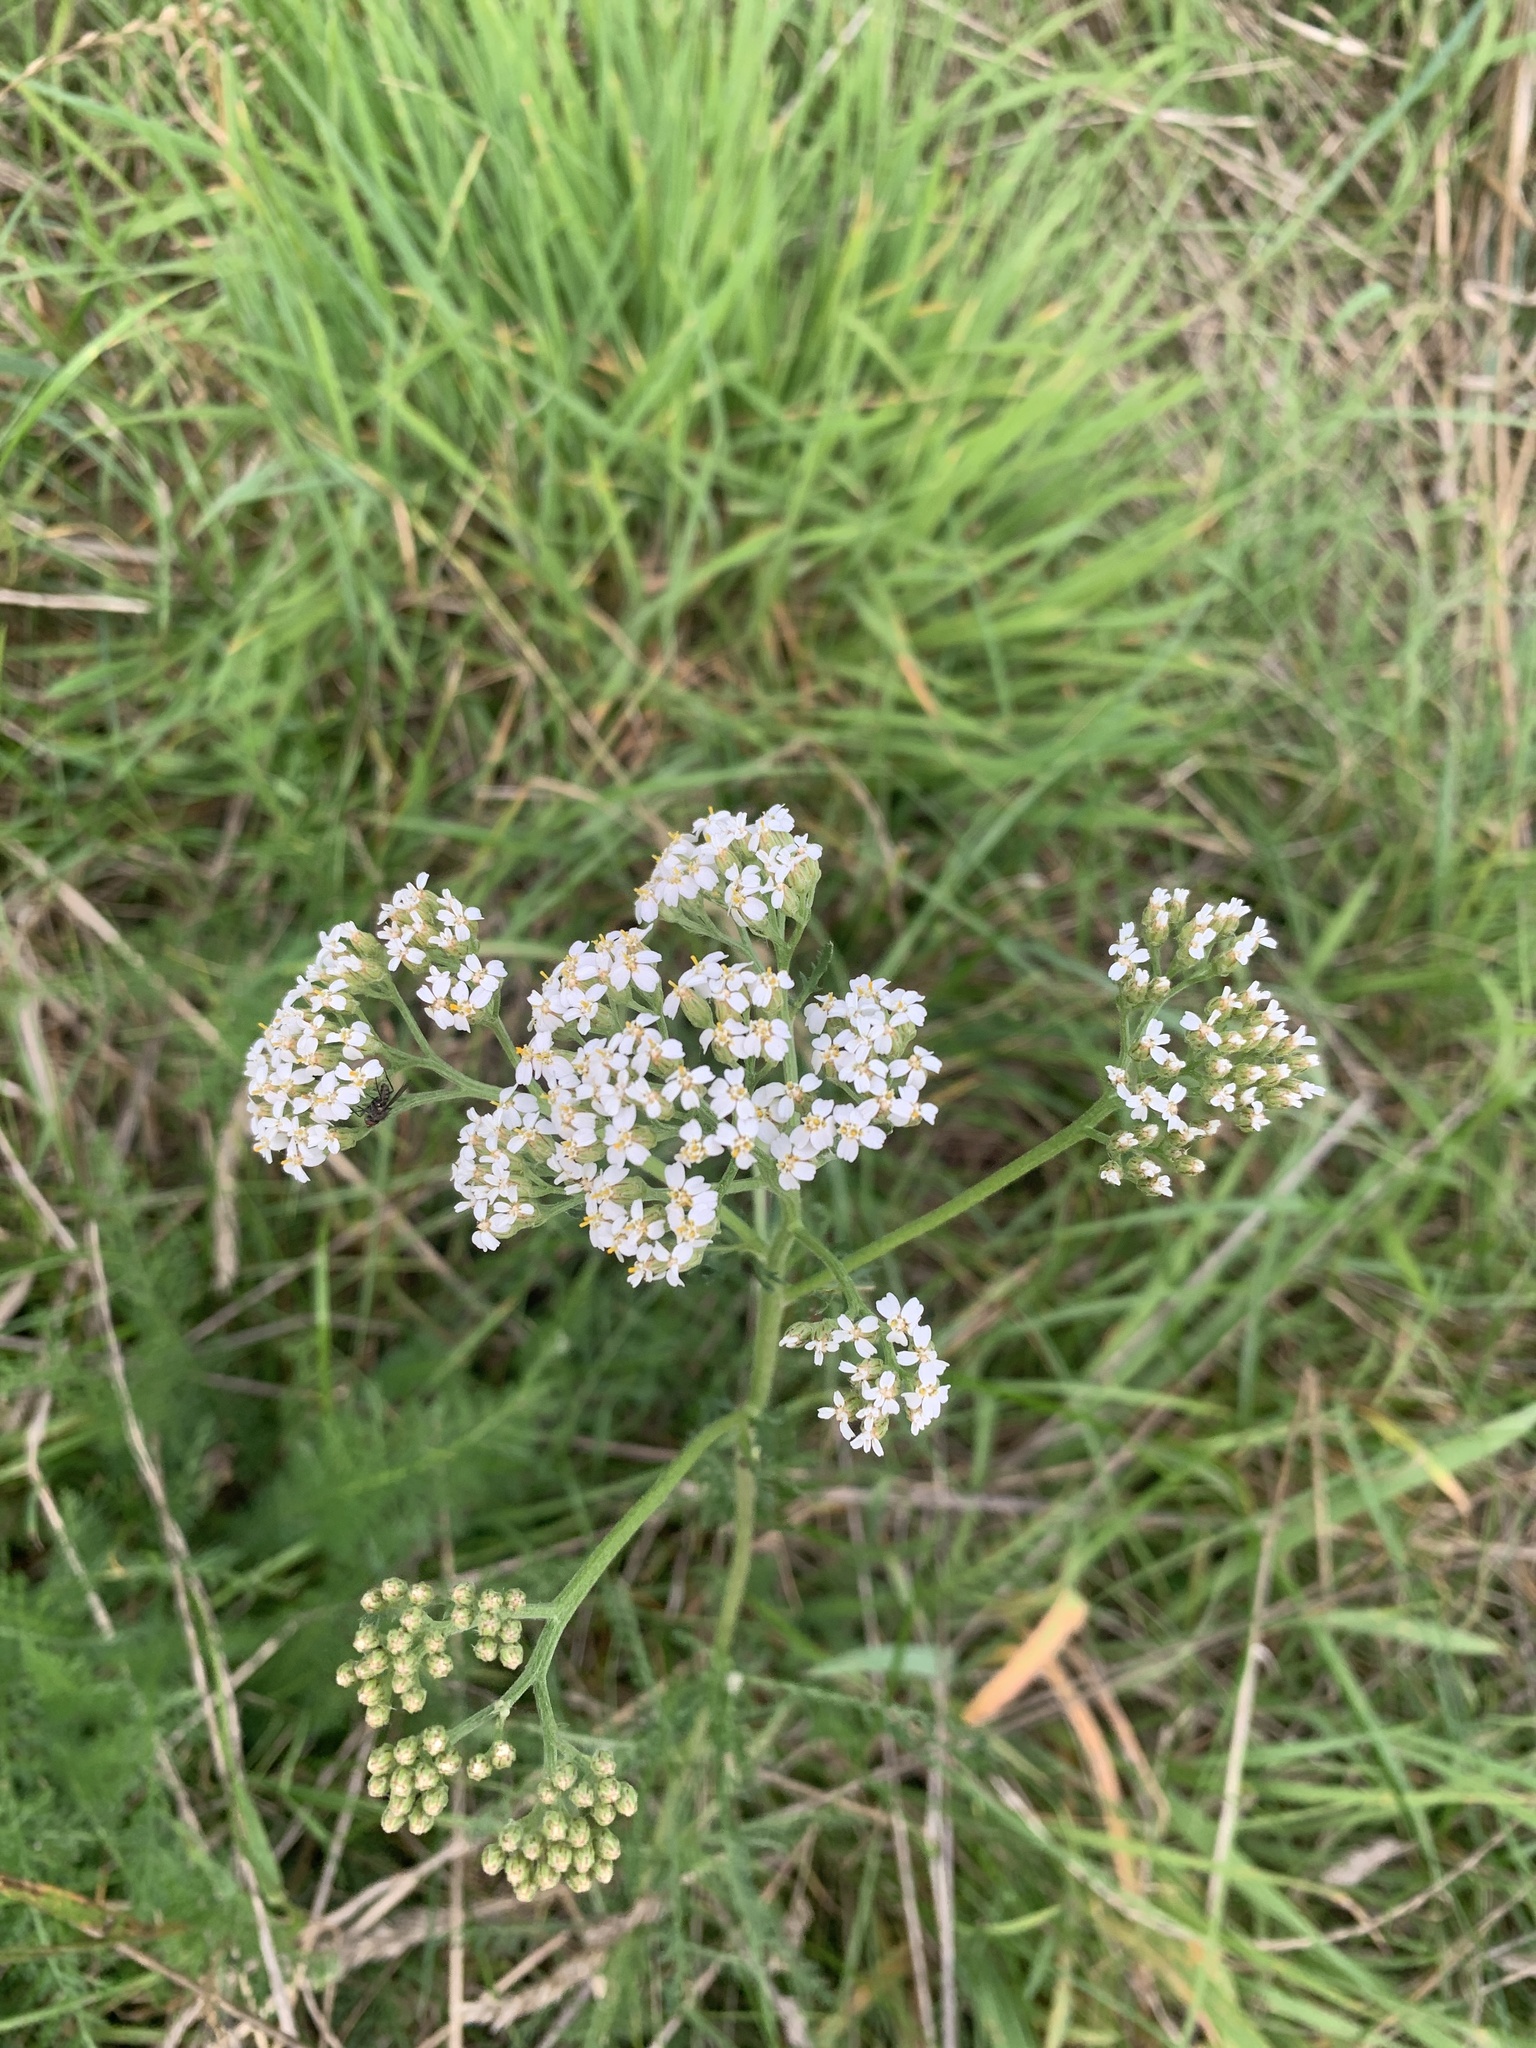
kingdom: Plantae
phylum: Tracheophyta
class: Magnoliopsida
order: Asterales
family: Asteraceae
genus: Achillea
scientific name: Achillea millefolium
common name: Yarrow
